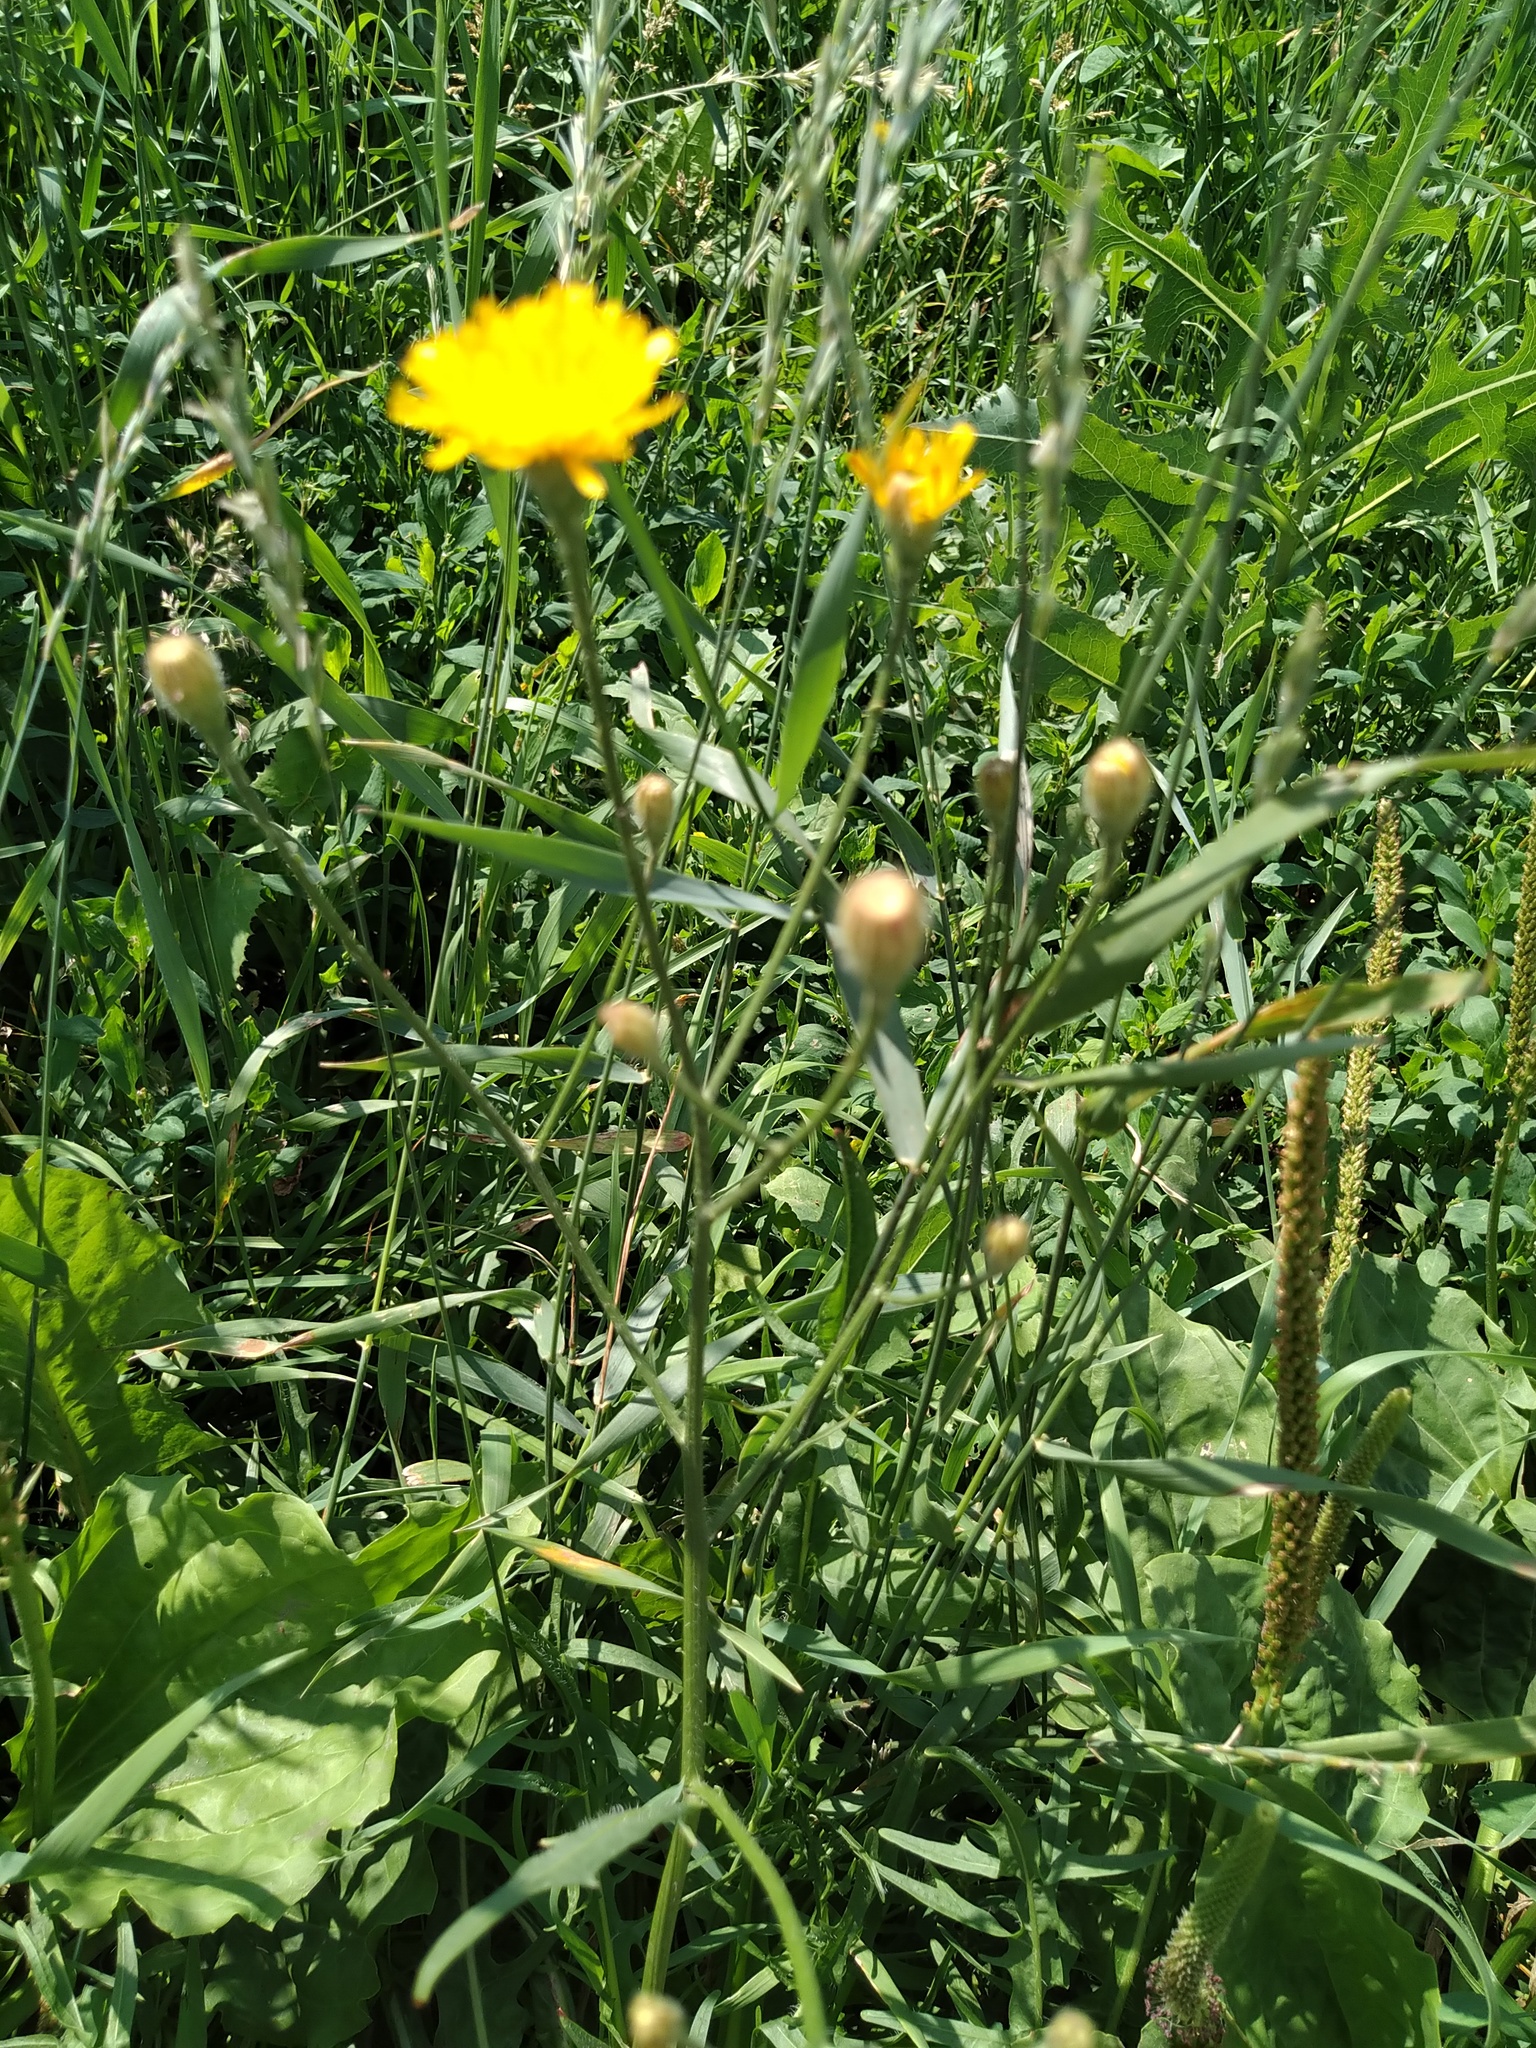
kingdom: Plantae
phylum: Tracheophyta
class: Magnoliopsida
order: Asterales
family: Asteraceae
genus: Scorzoneroides
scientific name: Scorzoneroides autumnalis
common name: Autumn hawkbit
